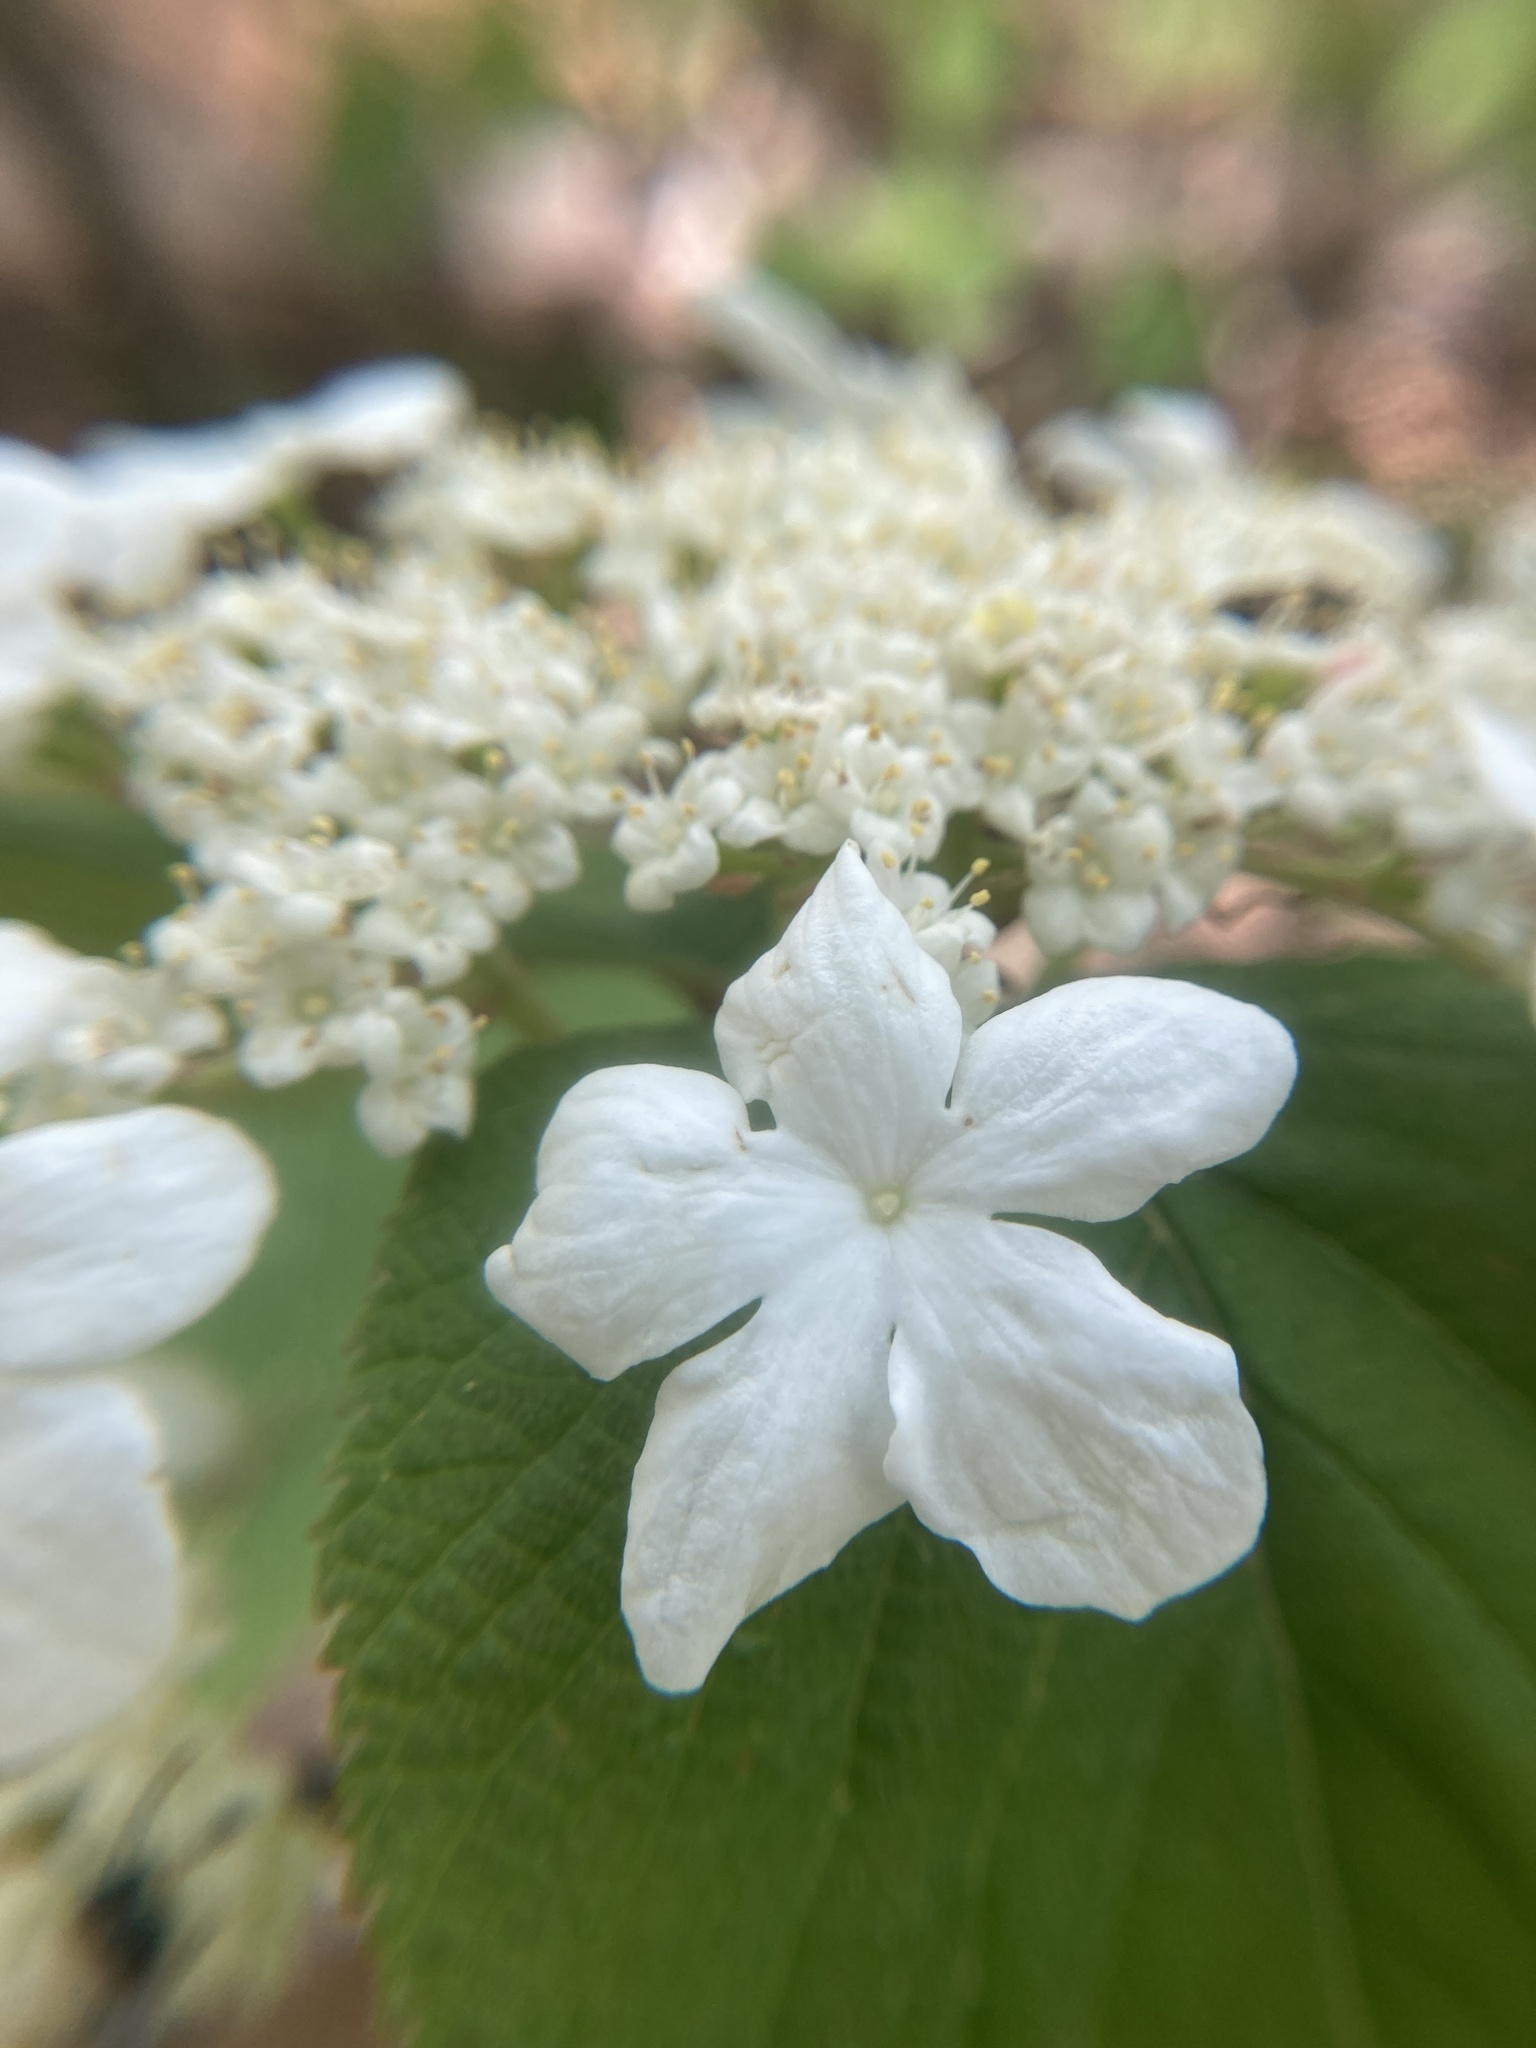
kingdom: Plantae
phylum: Tracheophyta
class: Magnoliopsida
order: Dipsacales
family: Viburnaceae
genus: Viburnum
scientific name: Viburnum lantanoides
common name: Hobblebush
